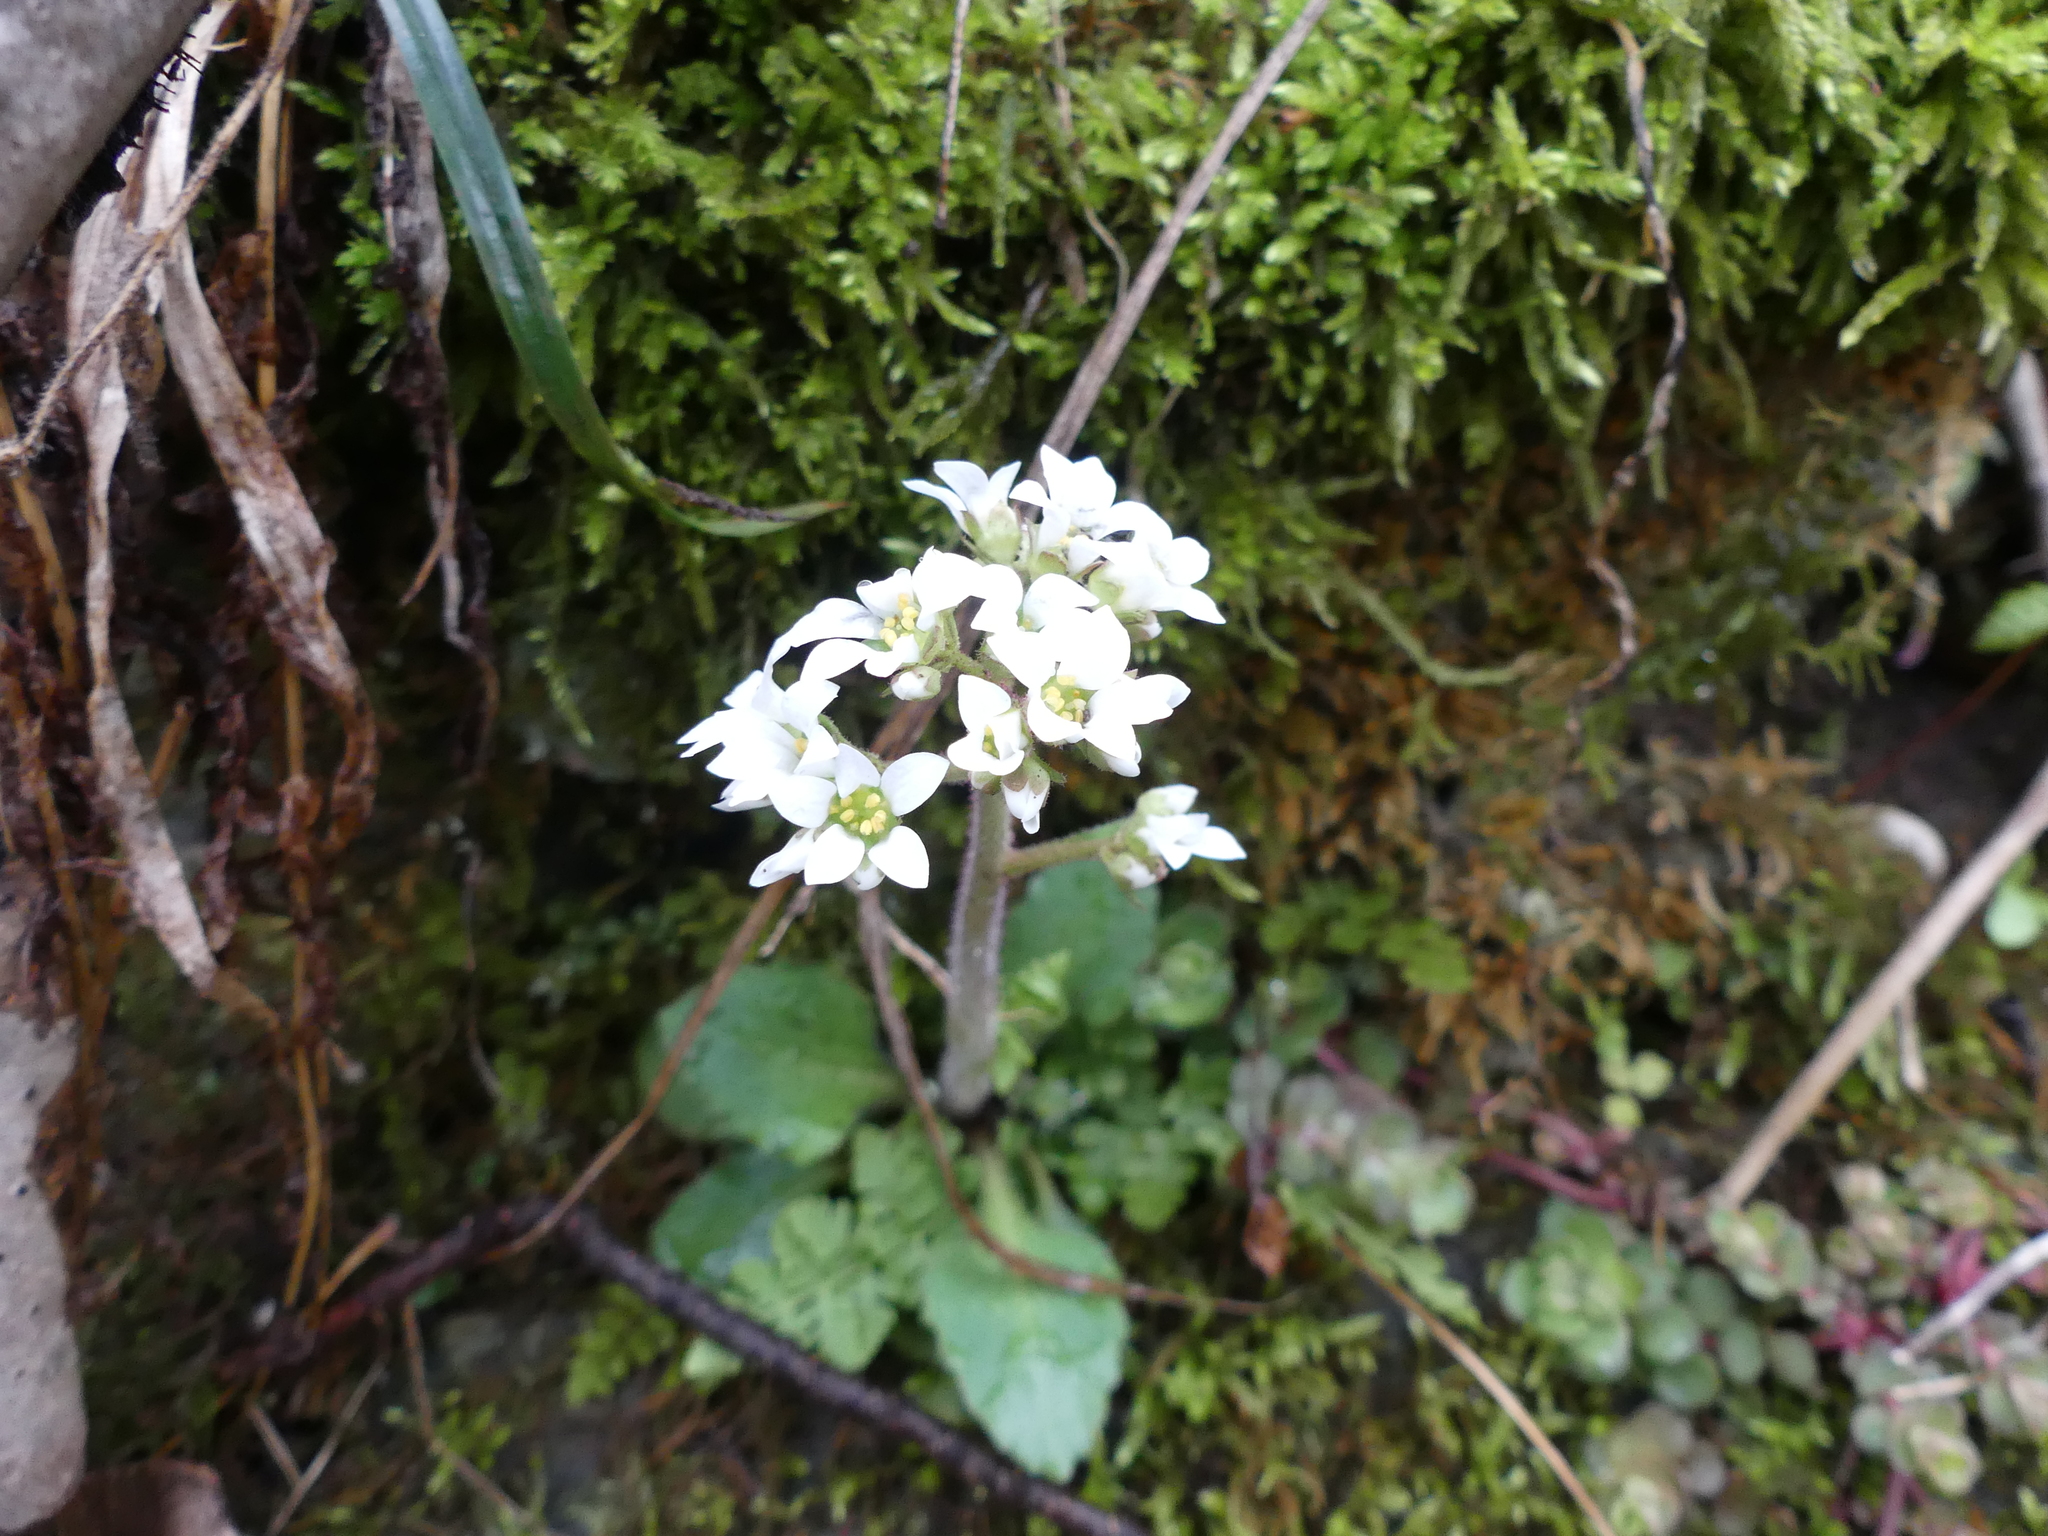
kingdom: Plantae
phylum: Tracheophyta
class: Magnoliopsida
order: Saxifragales
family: Saxifragaceae
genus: Micranthes
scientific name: Micranthes virginiensis
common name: Early saxifrage
